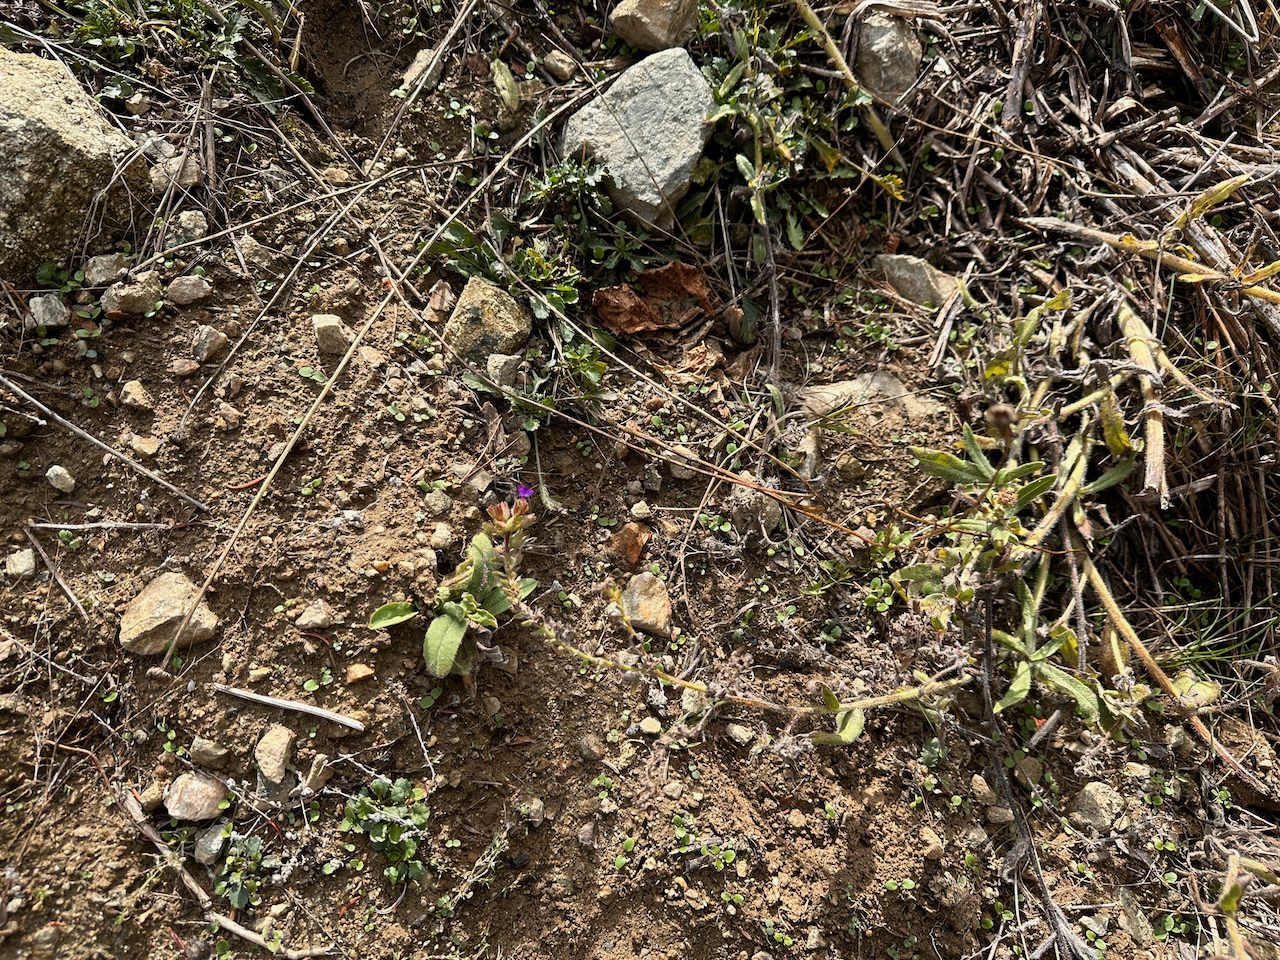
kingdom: Plantae
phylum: Tracheophyta
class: Magnoliopsida
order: Boraginales
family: Boraginaceae
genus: Anchusa
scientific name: Anchusa officinalis
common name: Alkanet
